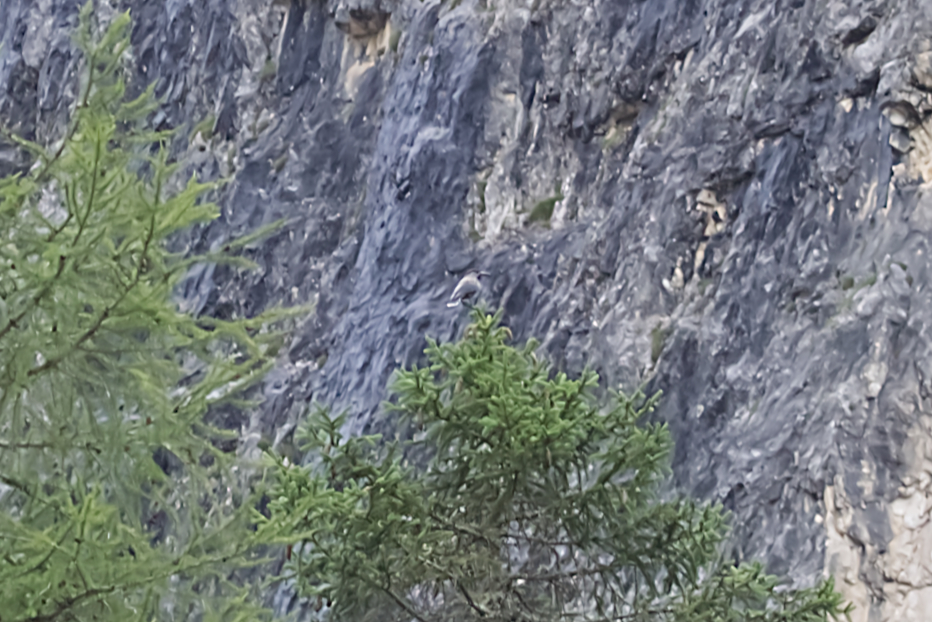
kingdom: Animalia
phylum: Chordata
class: Aves
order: Passeriformes
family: Corvidae
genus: Nucifraga
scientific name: Nucifraga caryocatactes
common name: Spotted nutcracker
